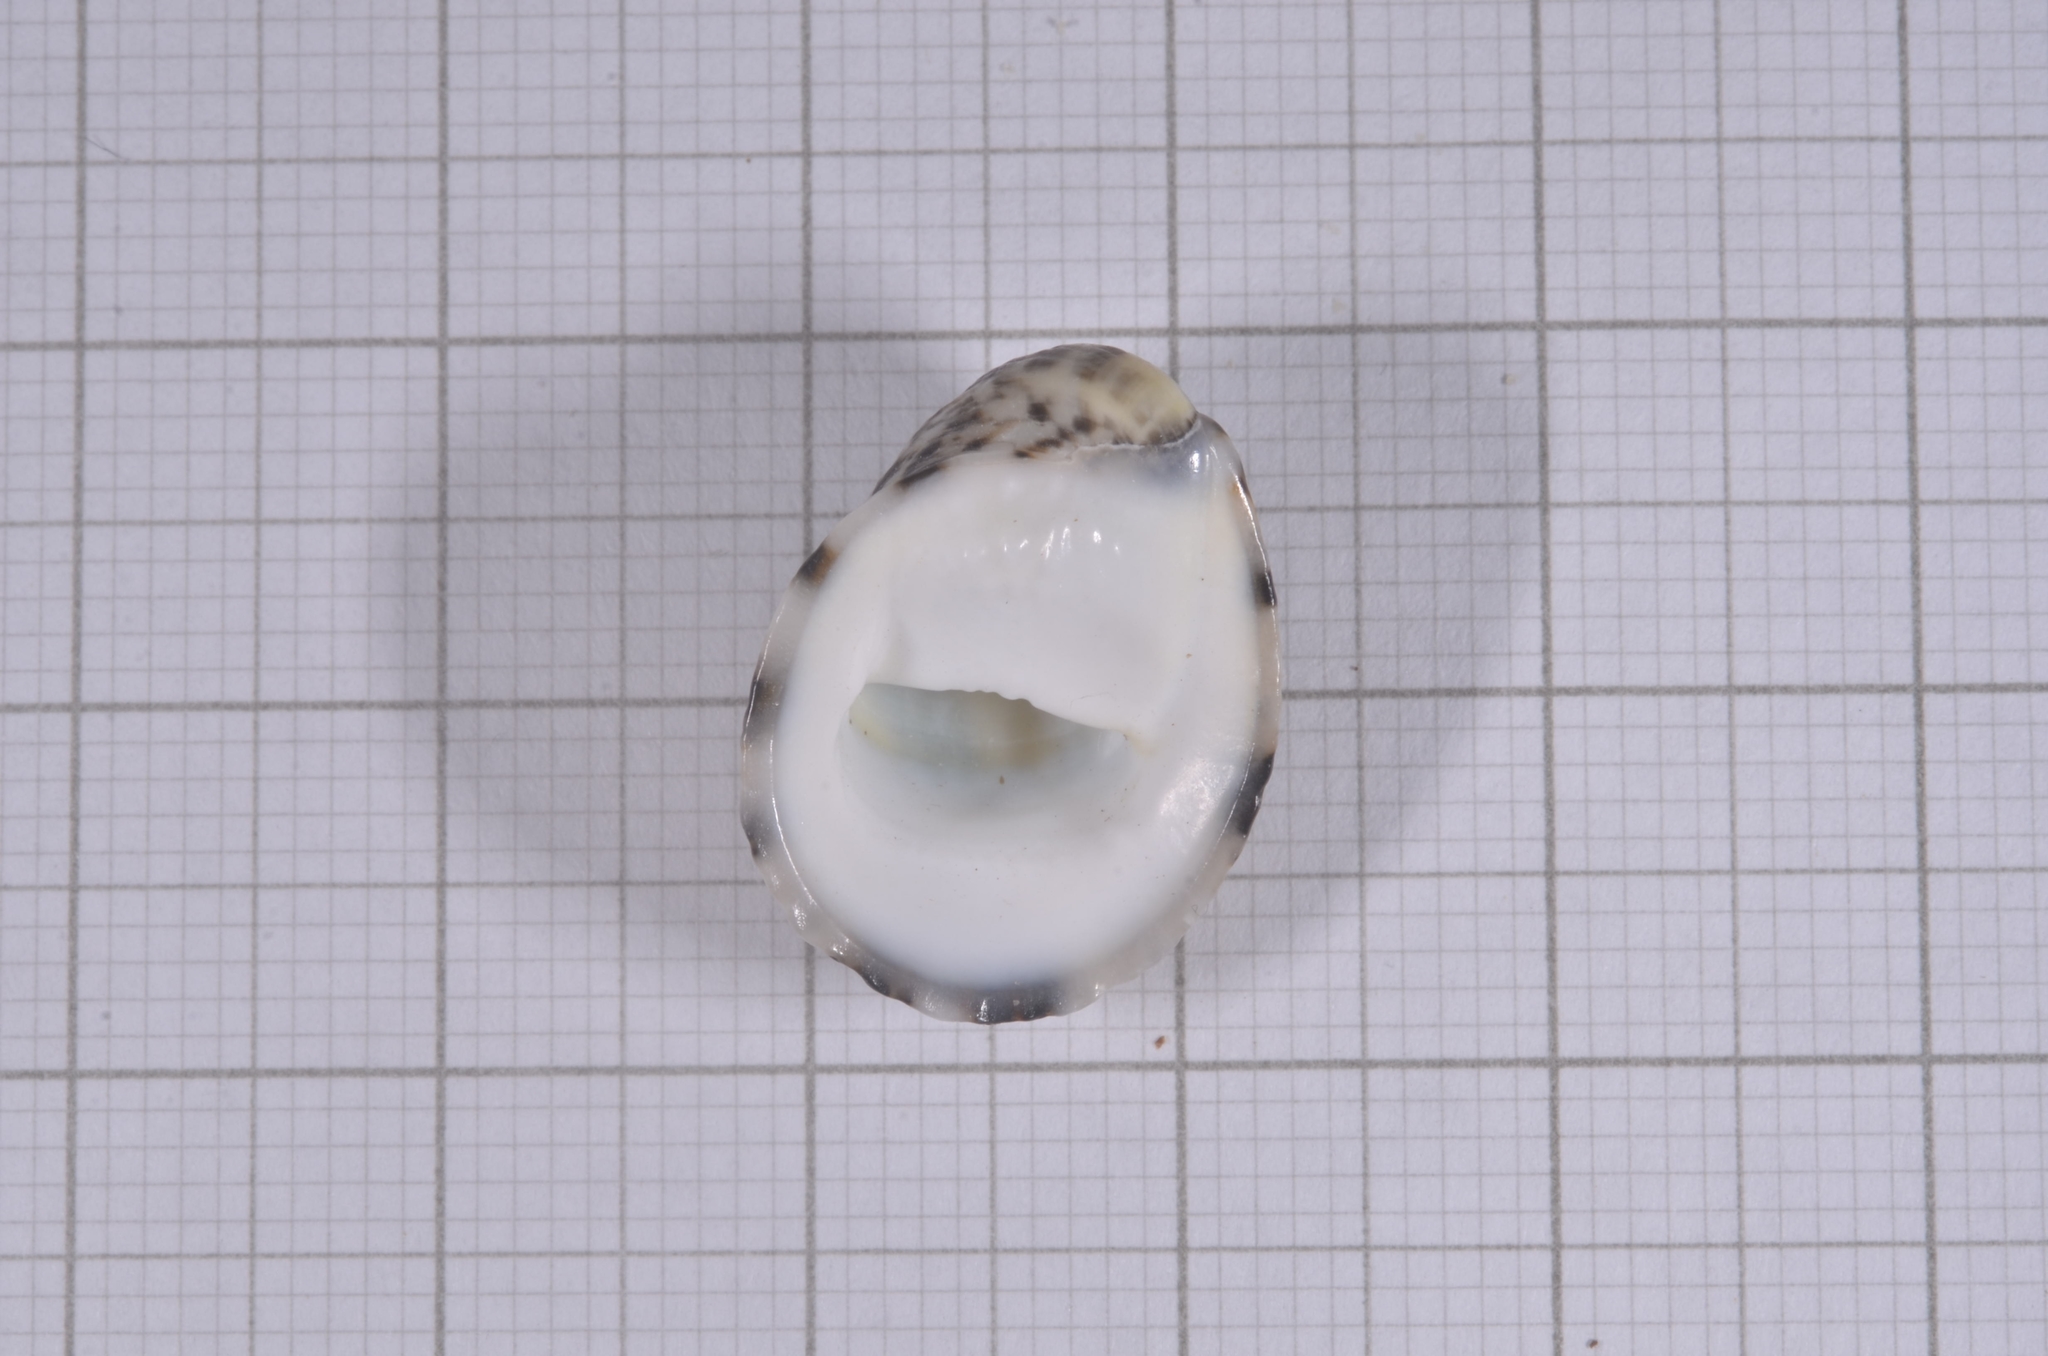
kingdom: Animalia
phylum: Mollusca
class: Gastropoda
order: Cycloneritida
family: Neritidae
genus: Nerita
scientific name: Nerita albicilla
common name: Blotched nerite
